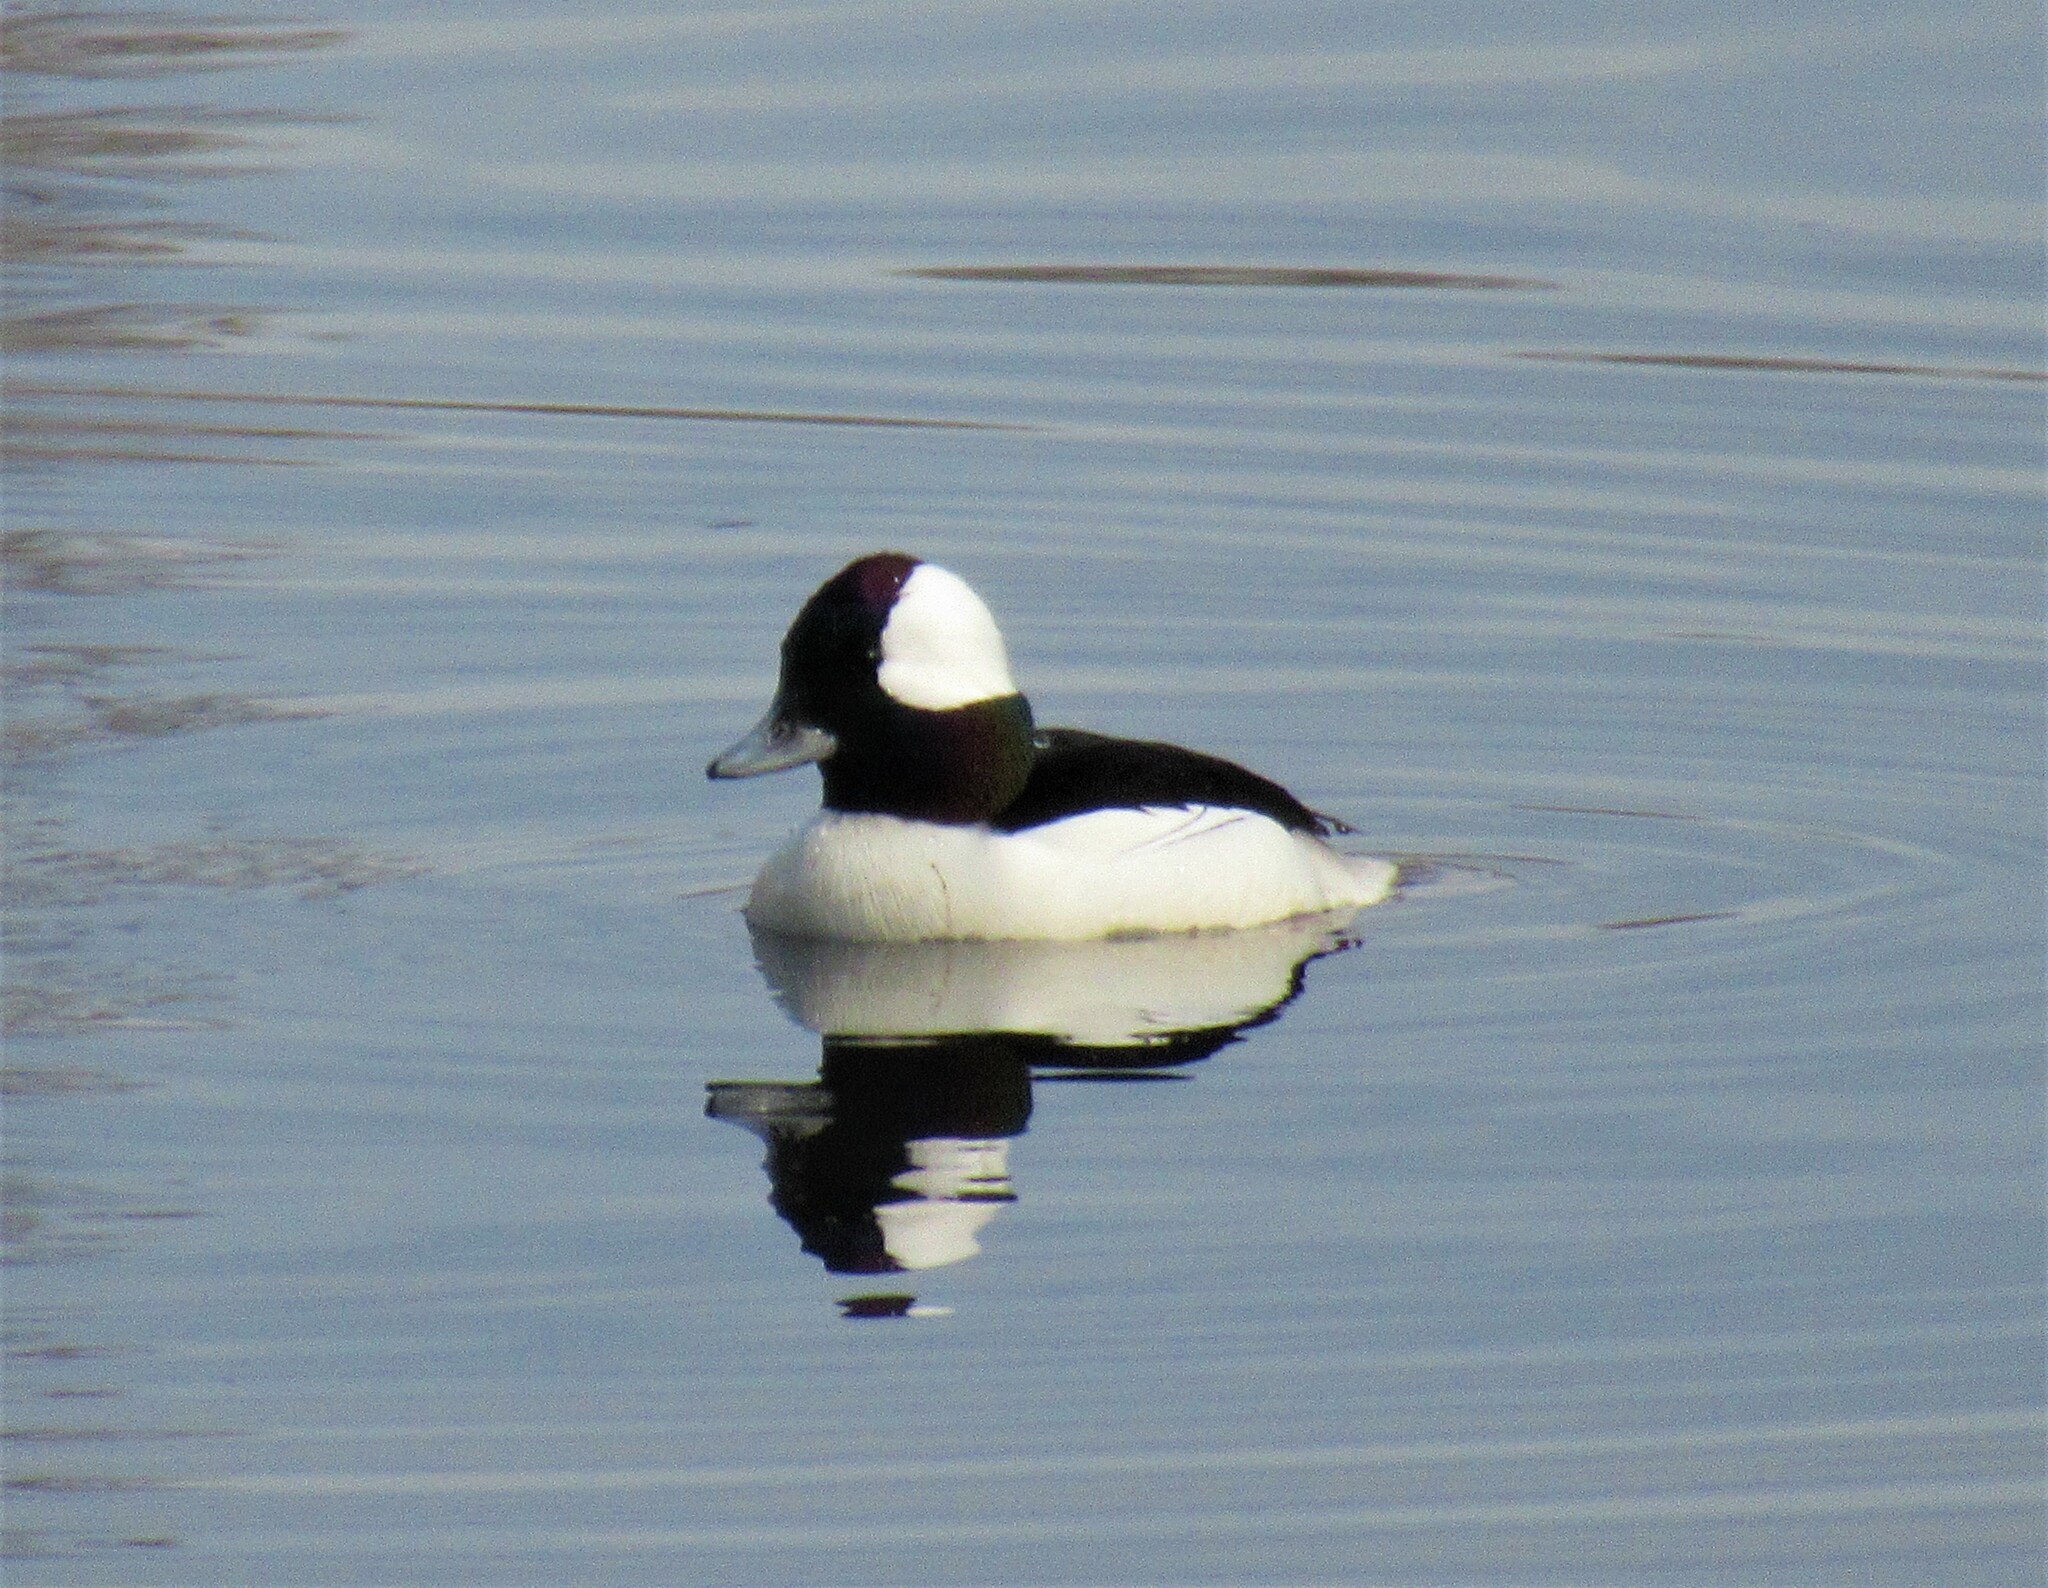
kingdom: Animalia
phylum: Chordata
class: Aves
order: Anseriformes
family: Anatidae
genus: Bucephala
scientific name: Bucephala albeola
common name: Bufflehead
